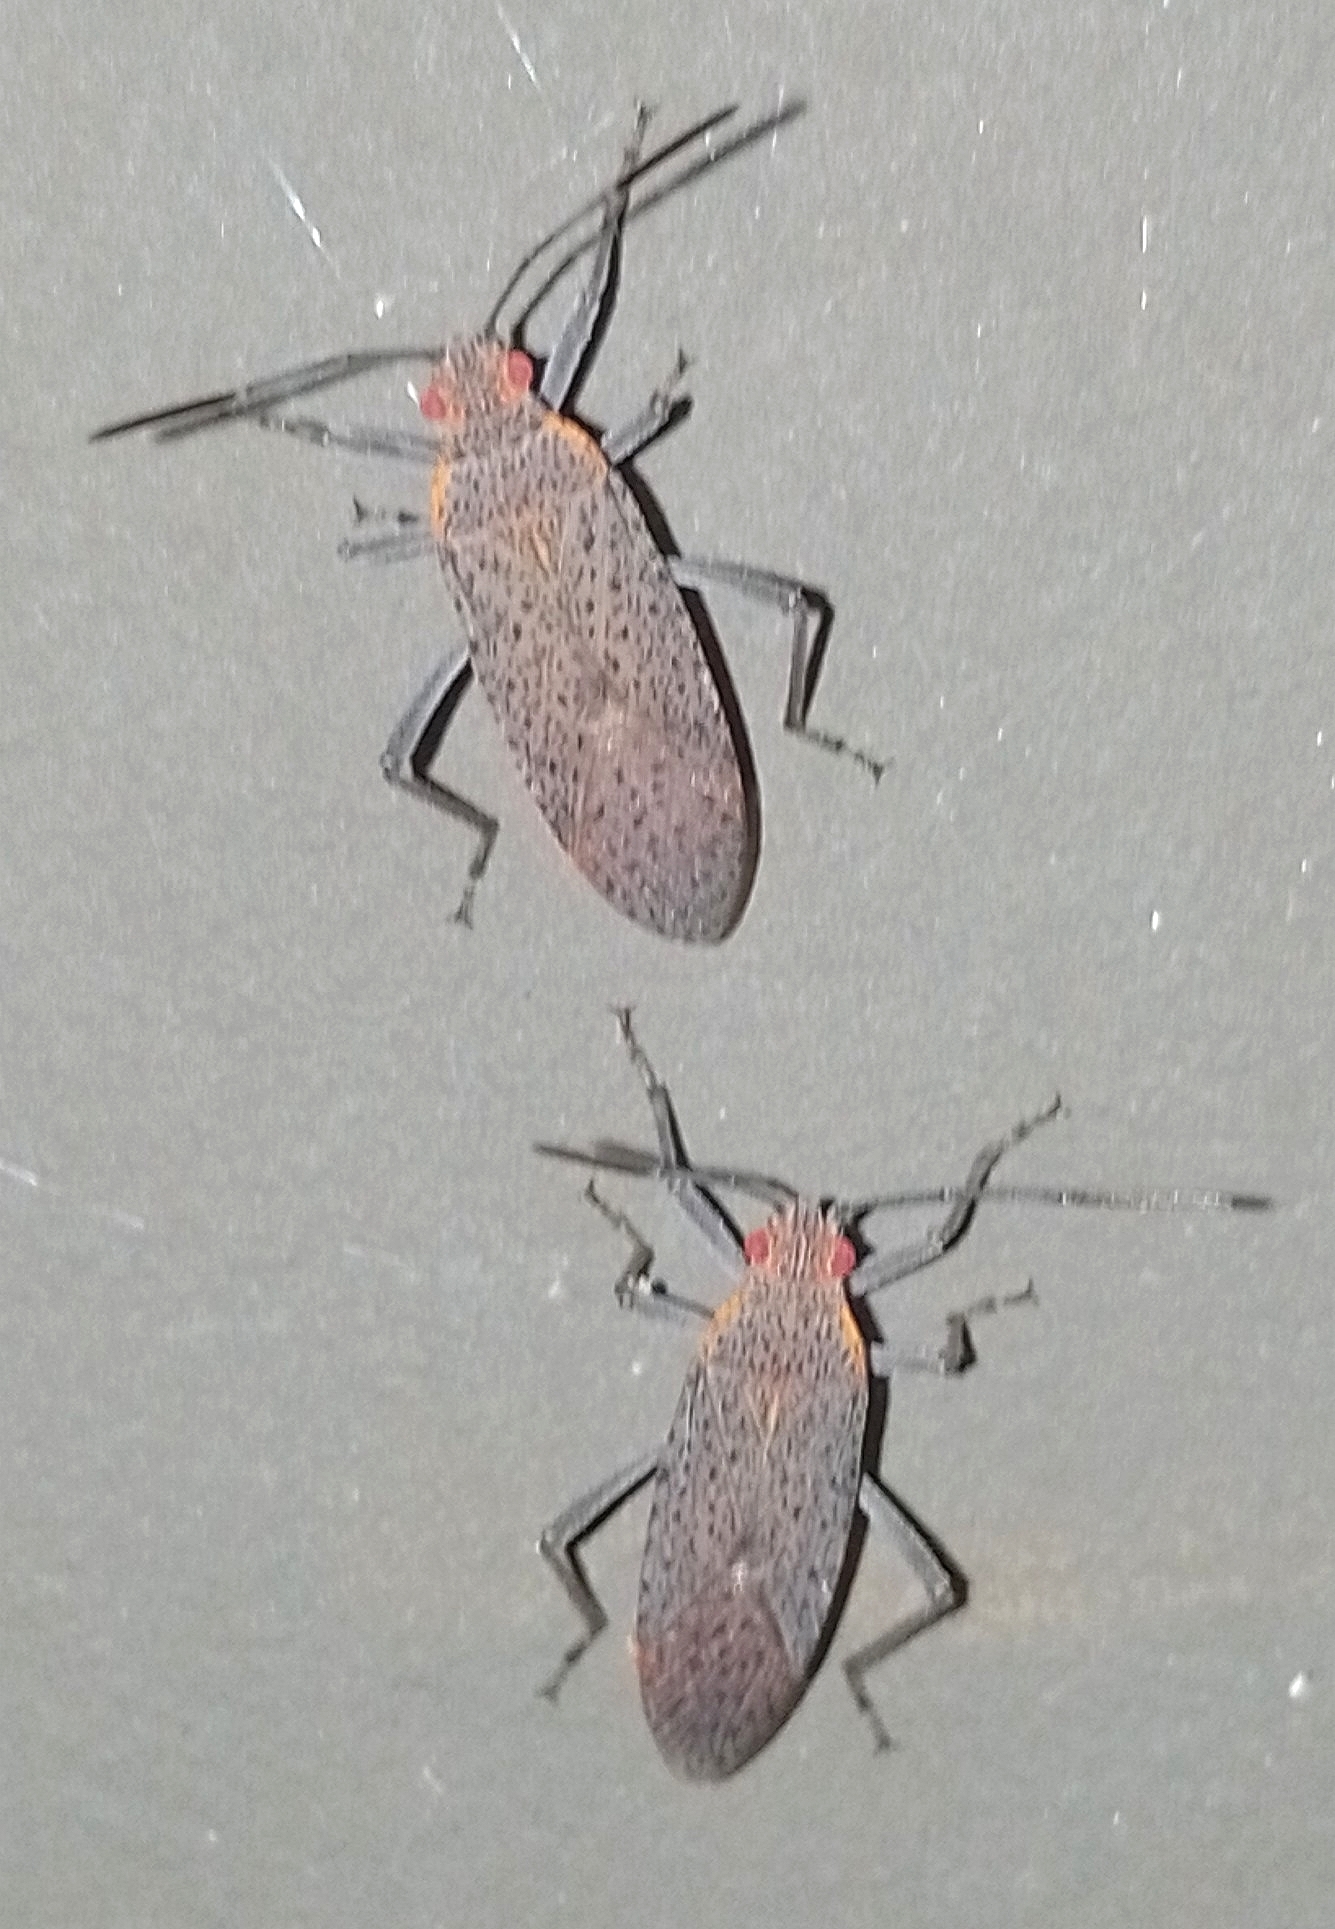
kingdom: Animalia
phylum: Arthropoda
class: Insecta
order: Hemiptera
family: Rhopalidae
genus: Jadera
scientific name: Jadera coturnix
